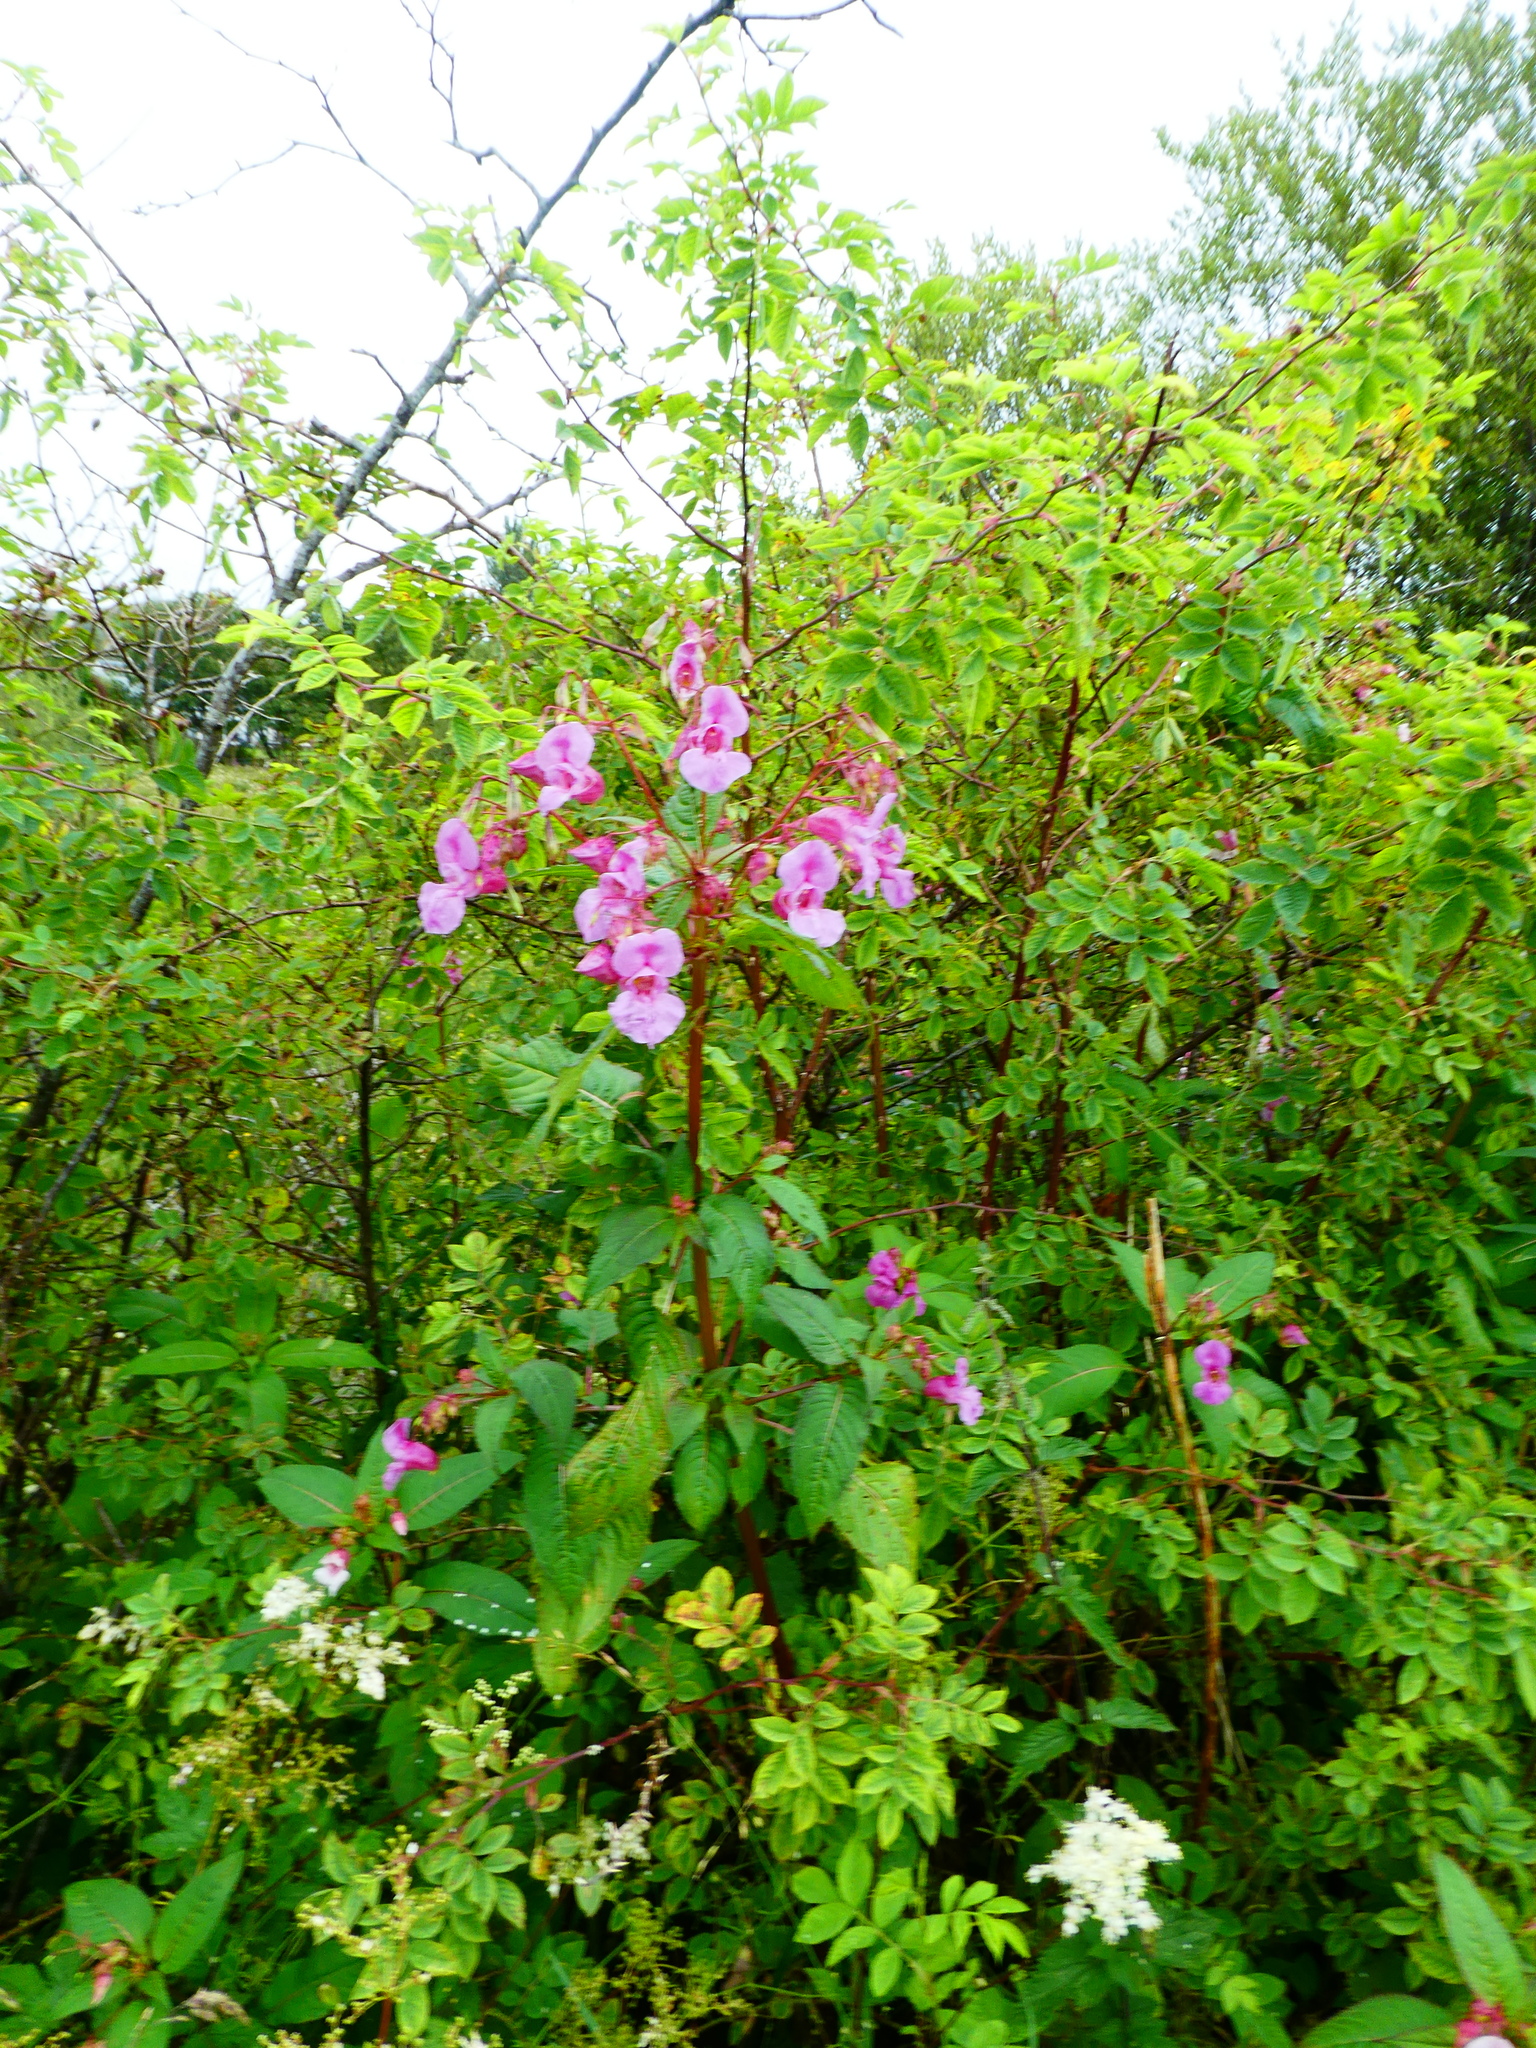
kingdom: Plantae
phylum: Tracheophyta
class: Magnoliopsida
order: Ericales
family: Balsaminaceae
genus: Impatiens
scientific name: Impatiens glandulifera
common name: Himalayan balsam
